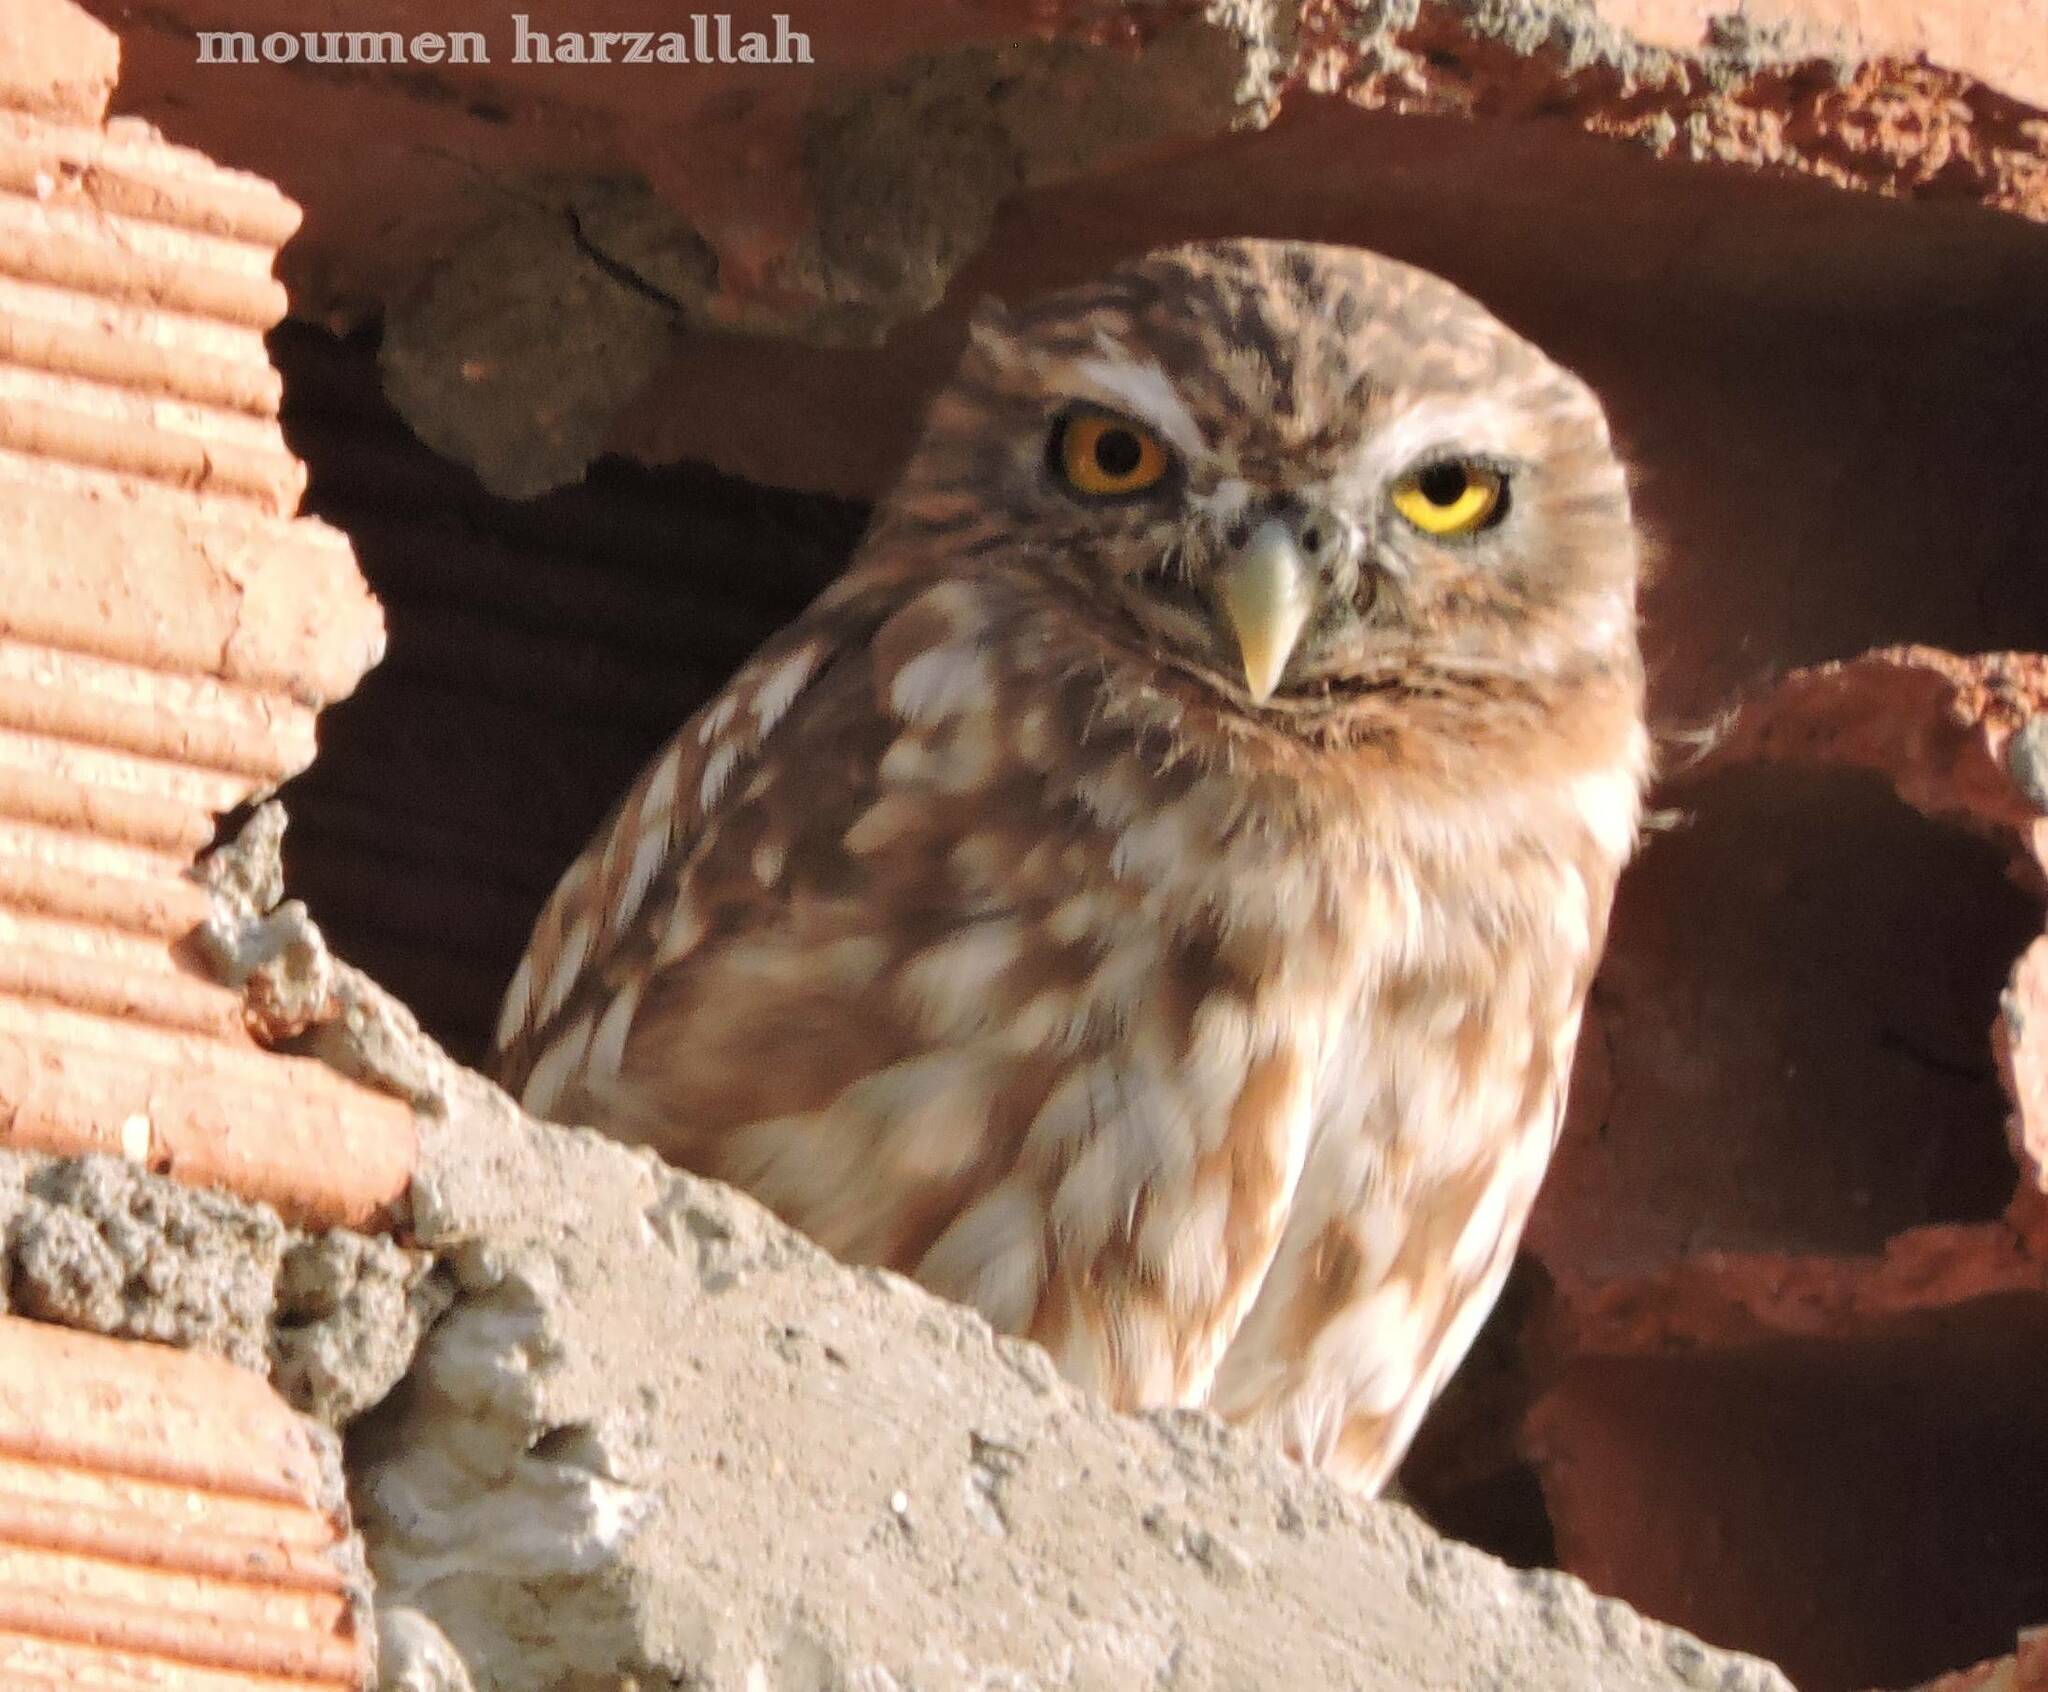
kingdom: Animalia
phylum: Chordata
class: Aves
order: Strigiformes
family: Strigidae
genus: Athene
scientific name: Athene noctua
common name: Little owl
